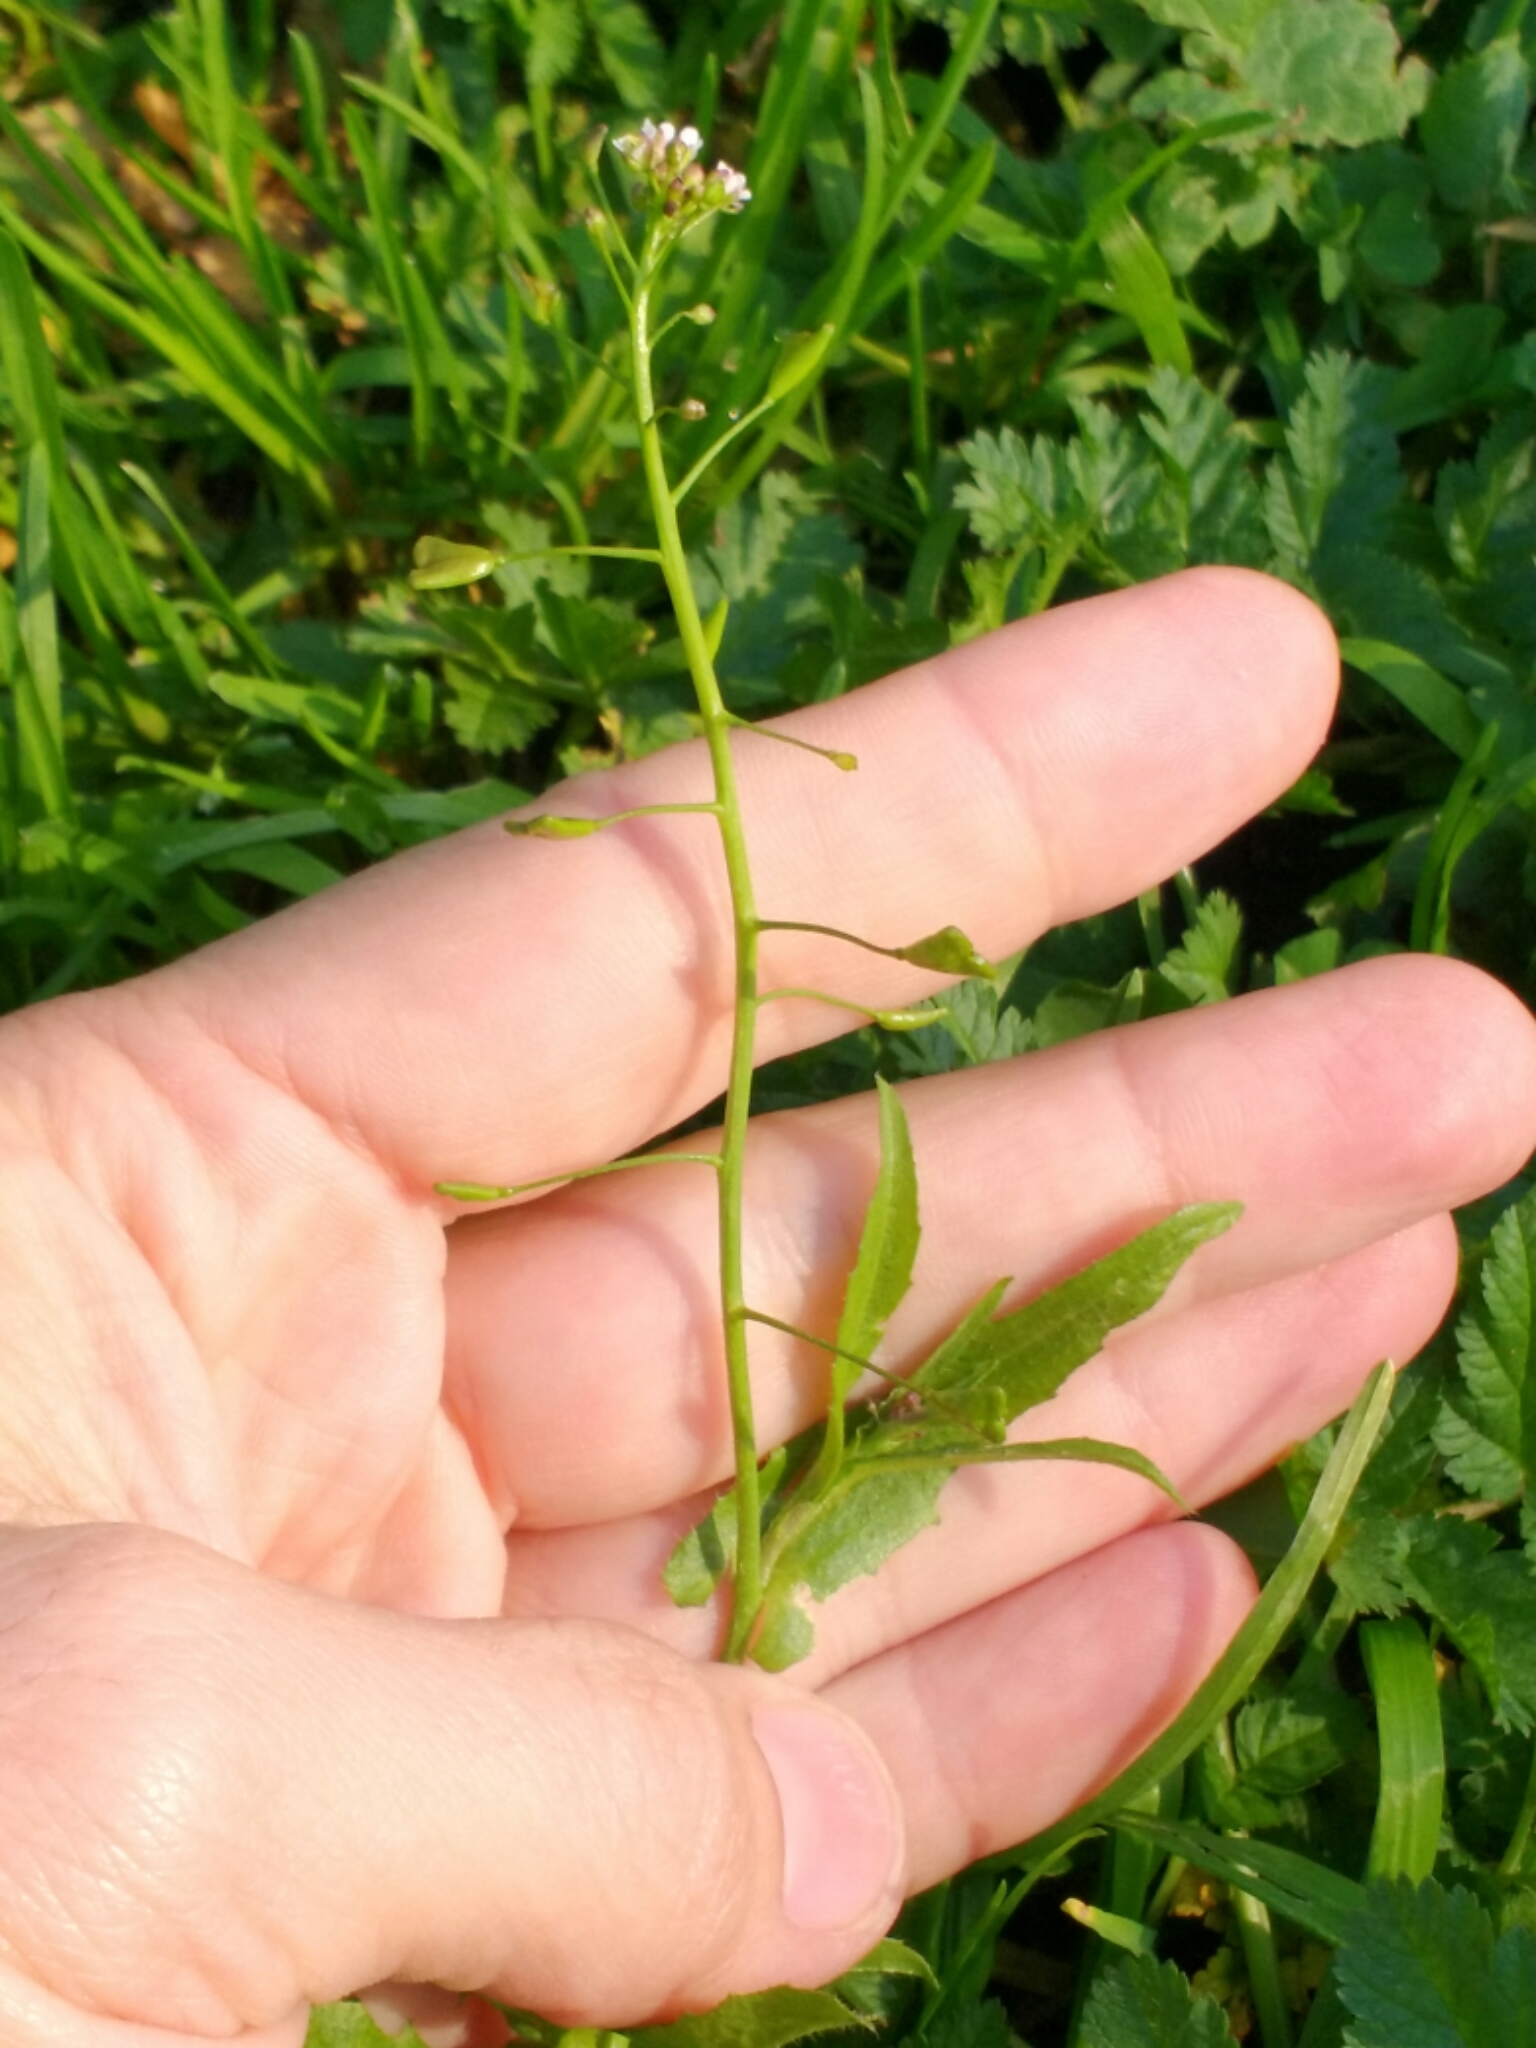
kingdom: Plantae
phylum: Tracheophyta
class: Magnoliopsida
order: Brassicales
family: Brassicaceae
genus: Capsella
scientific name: Capsella bursa-pastoris
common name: Shepherd's purse
